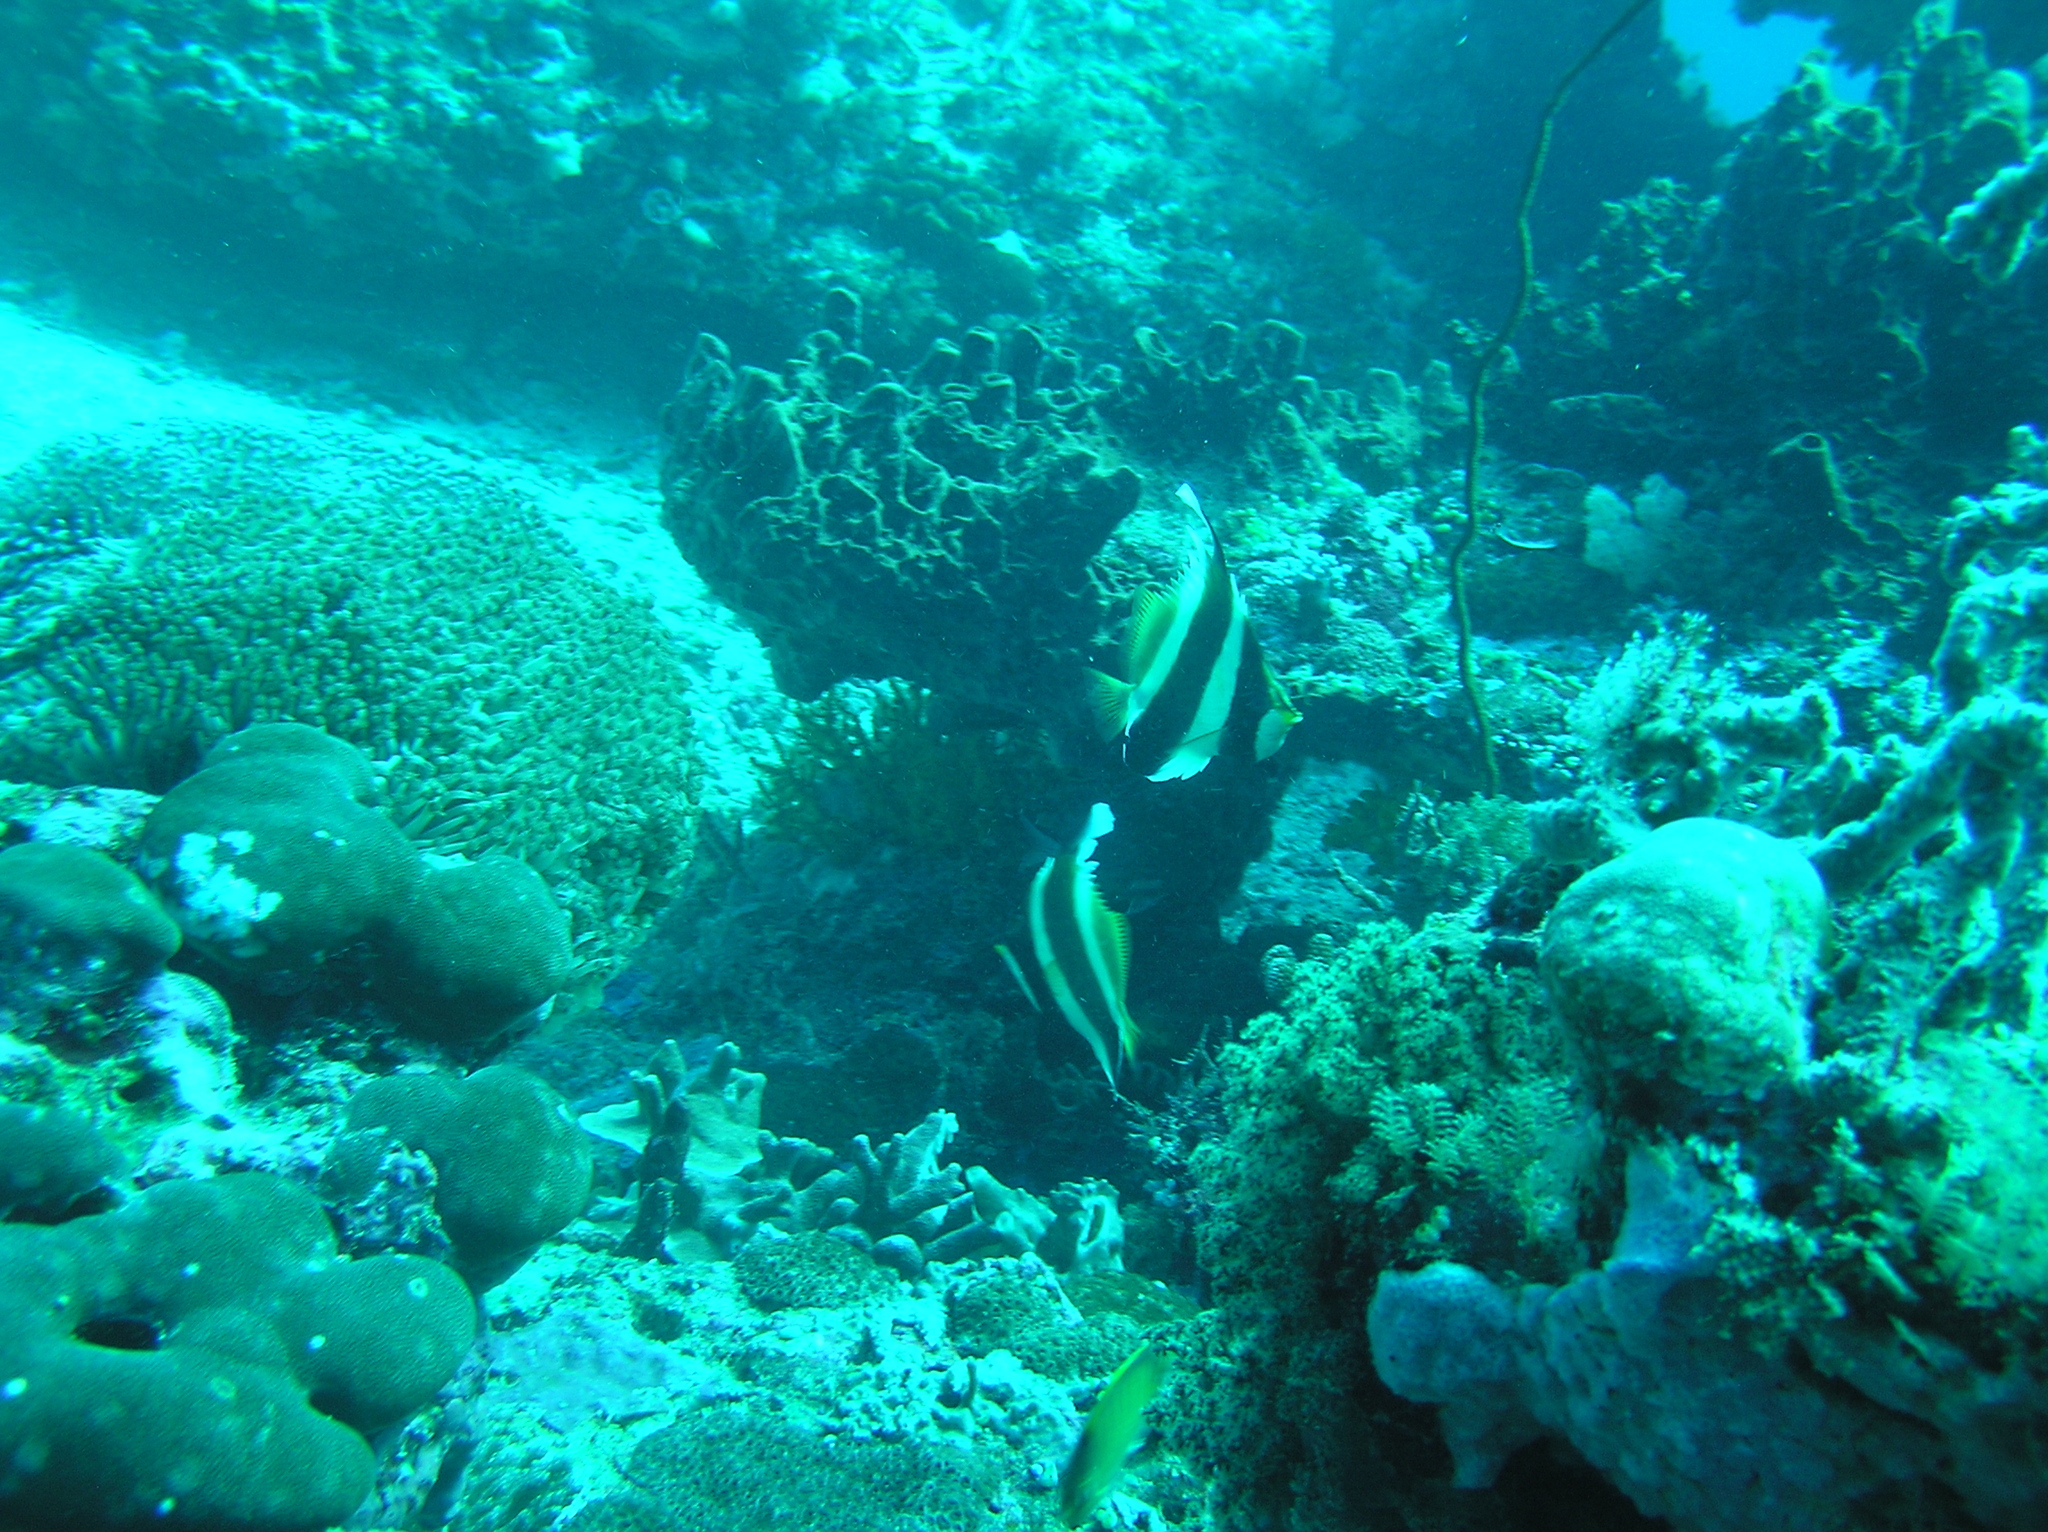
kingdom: Animalia
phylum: Chordata
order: Perciformes
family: Chaetodontidae
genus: Heniochus
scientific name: Heniochus chrysostomus
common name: Horned bannerfish
